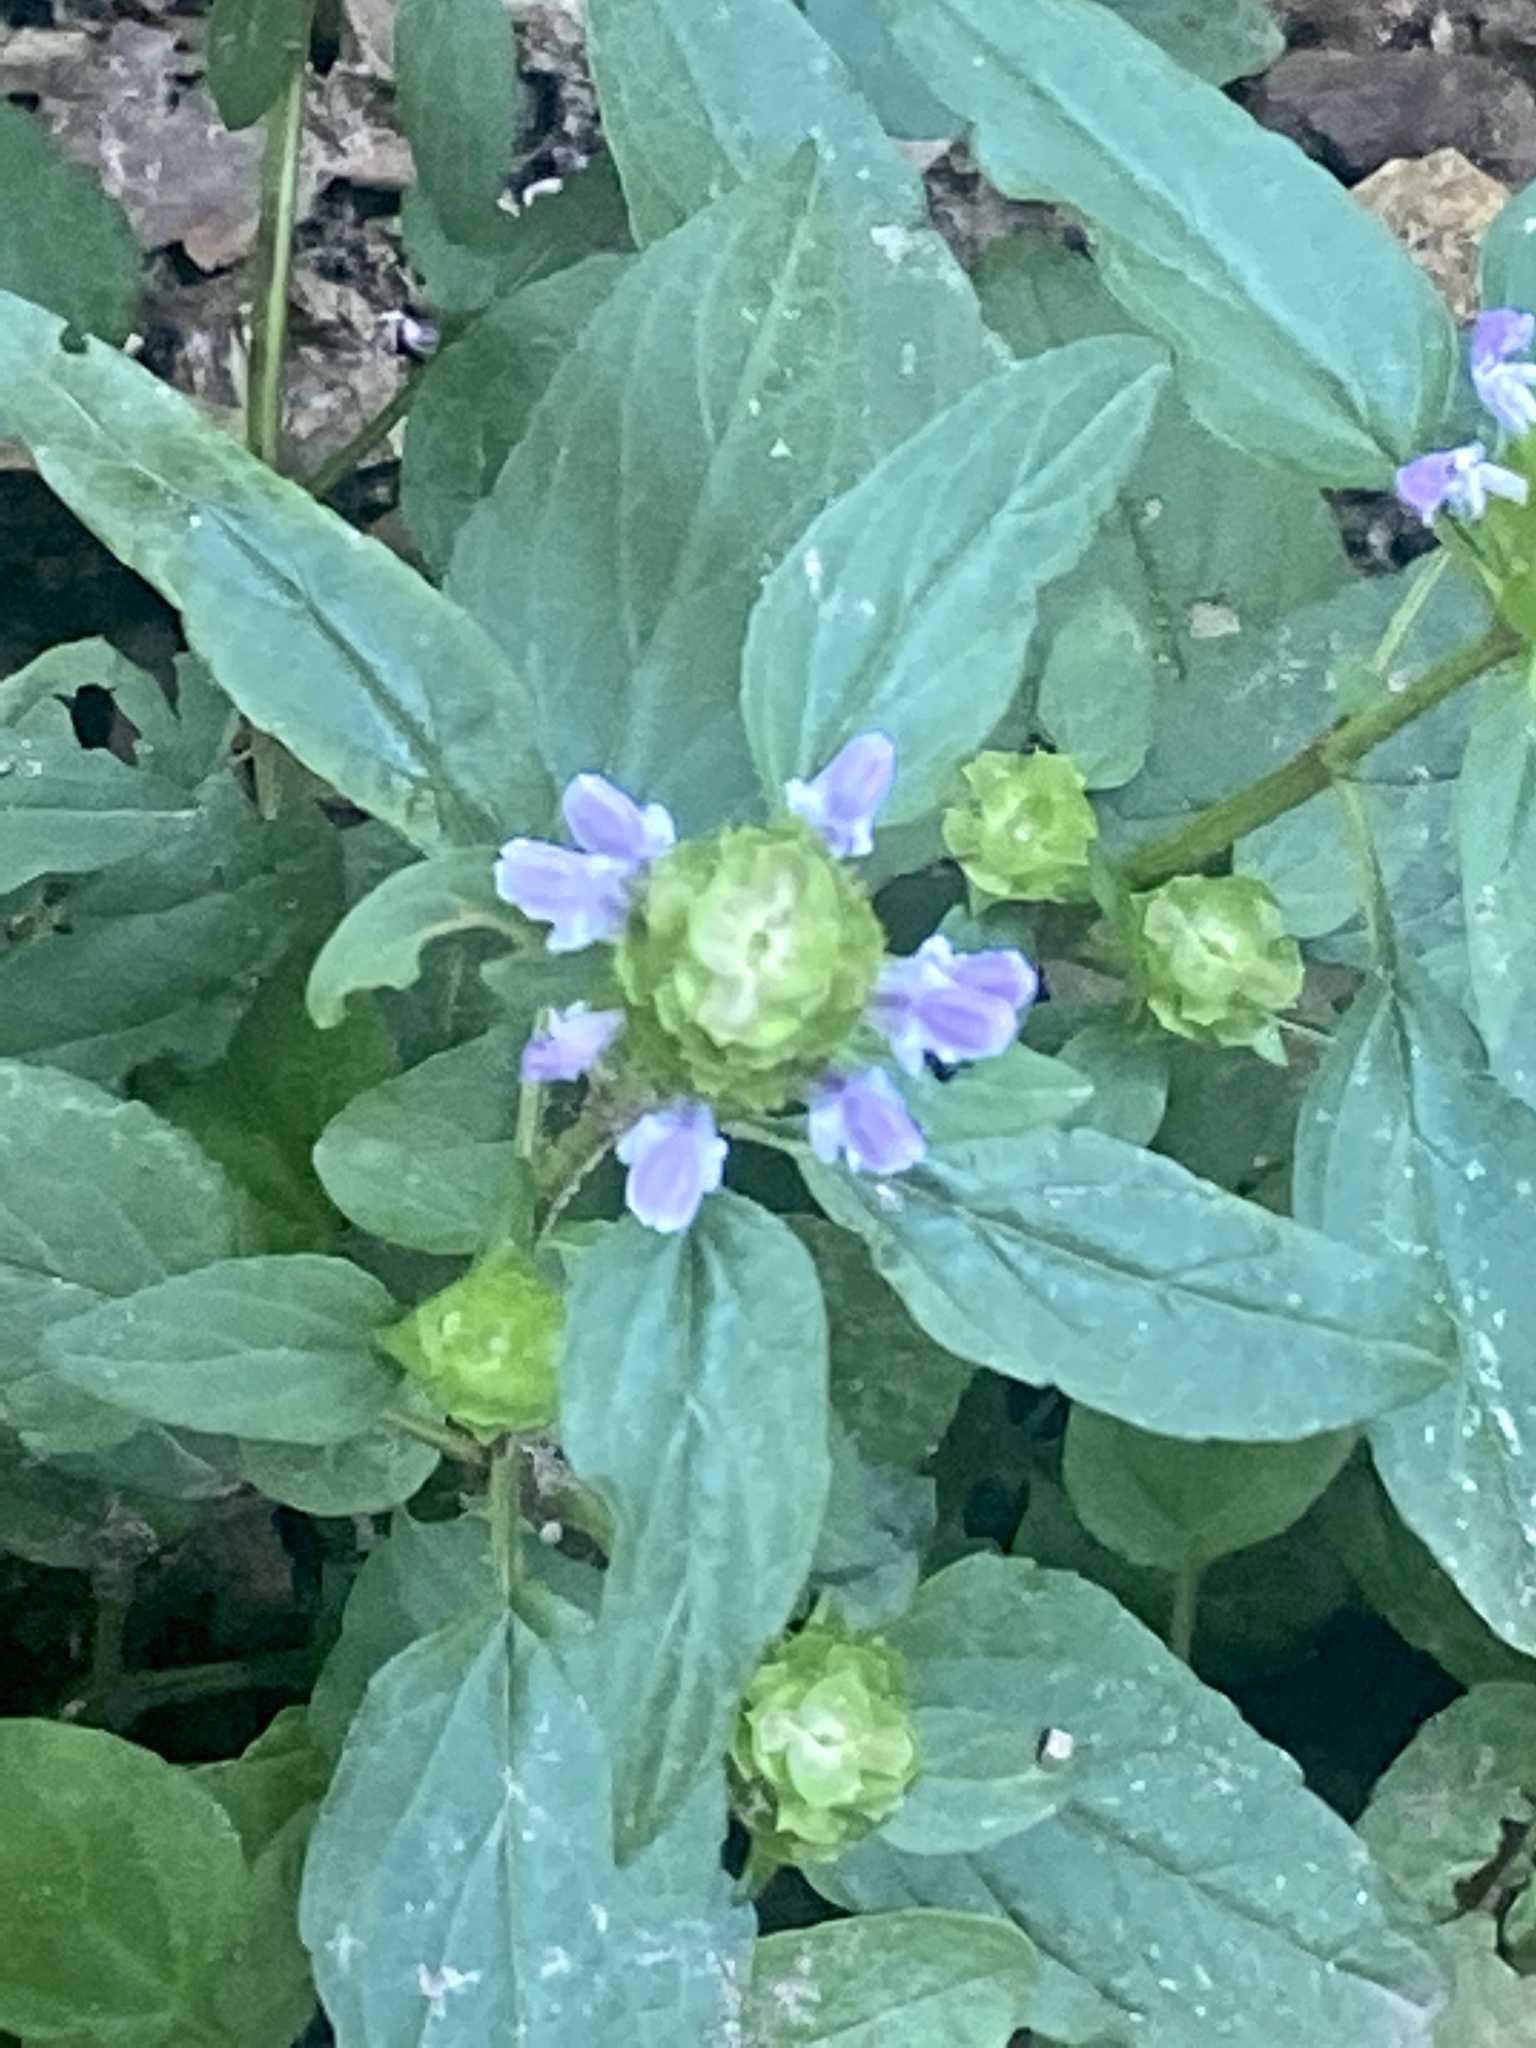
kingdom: Plantae
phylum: Tracheophyta
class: Magnoliopsida
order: Lamiales
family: Lamiaceae
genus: Prunella
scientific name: Prunella vulgaris
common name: Heal-all
